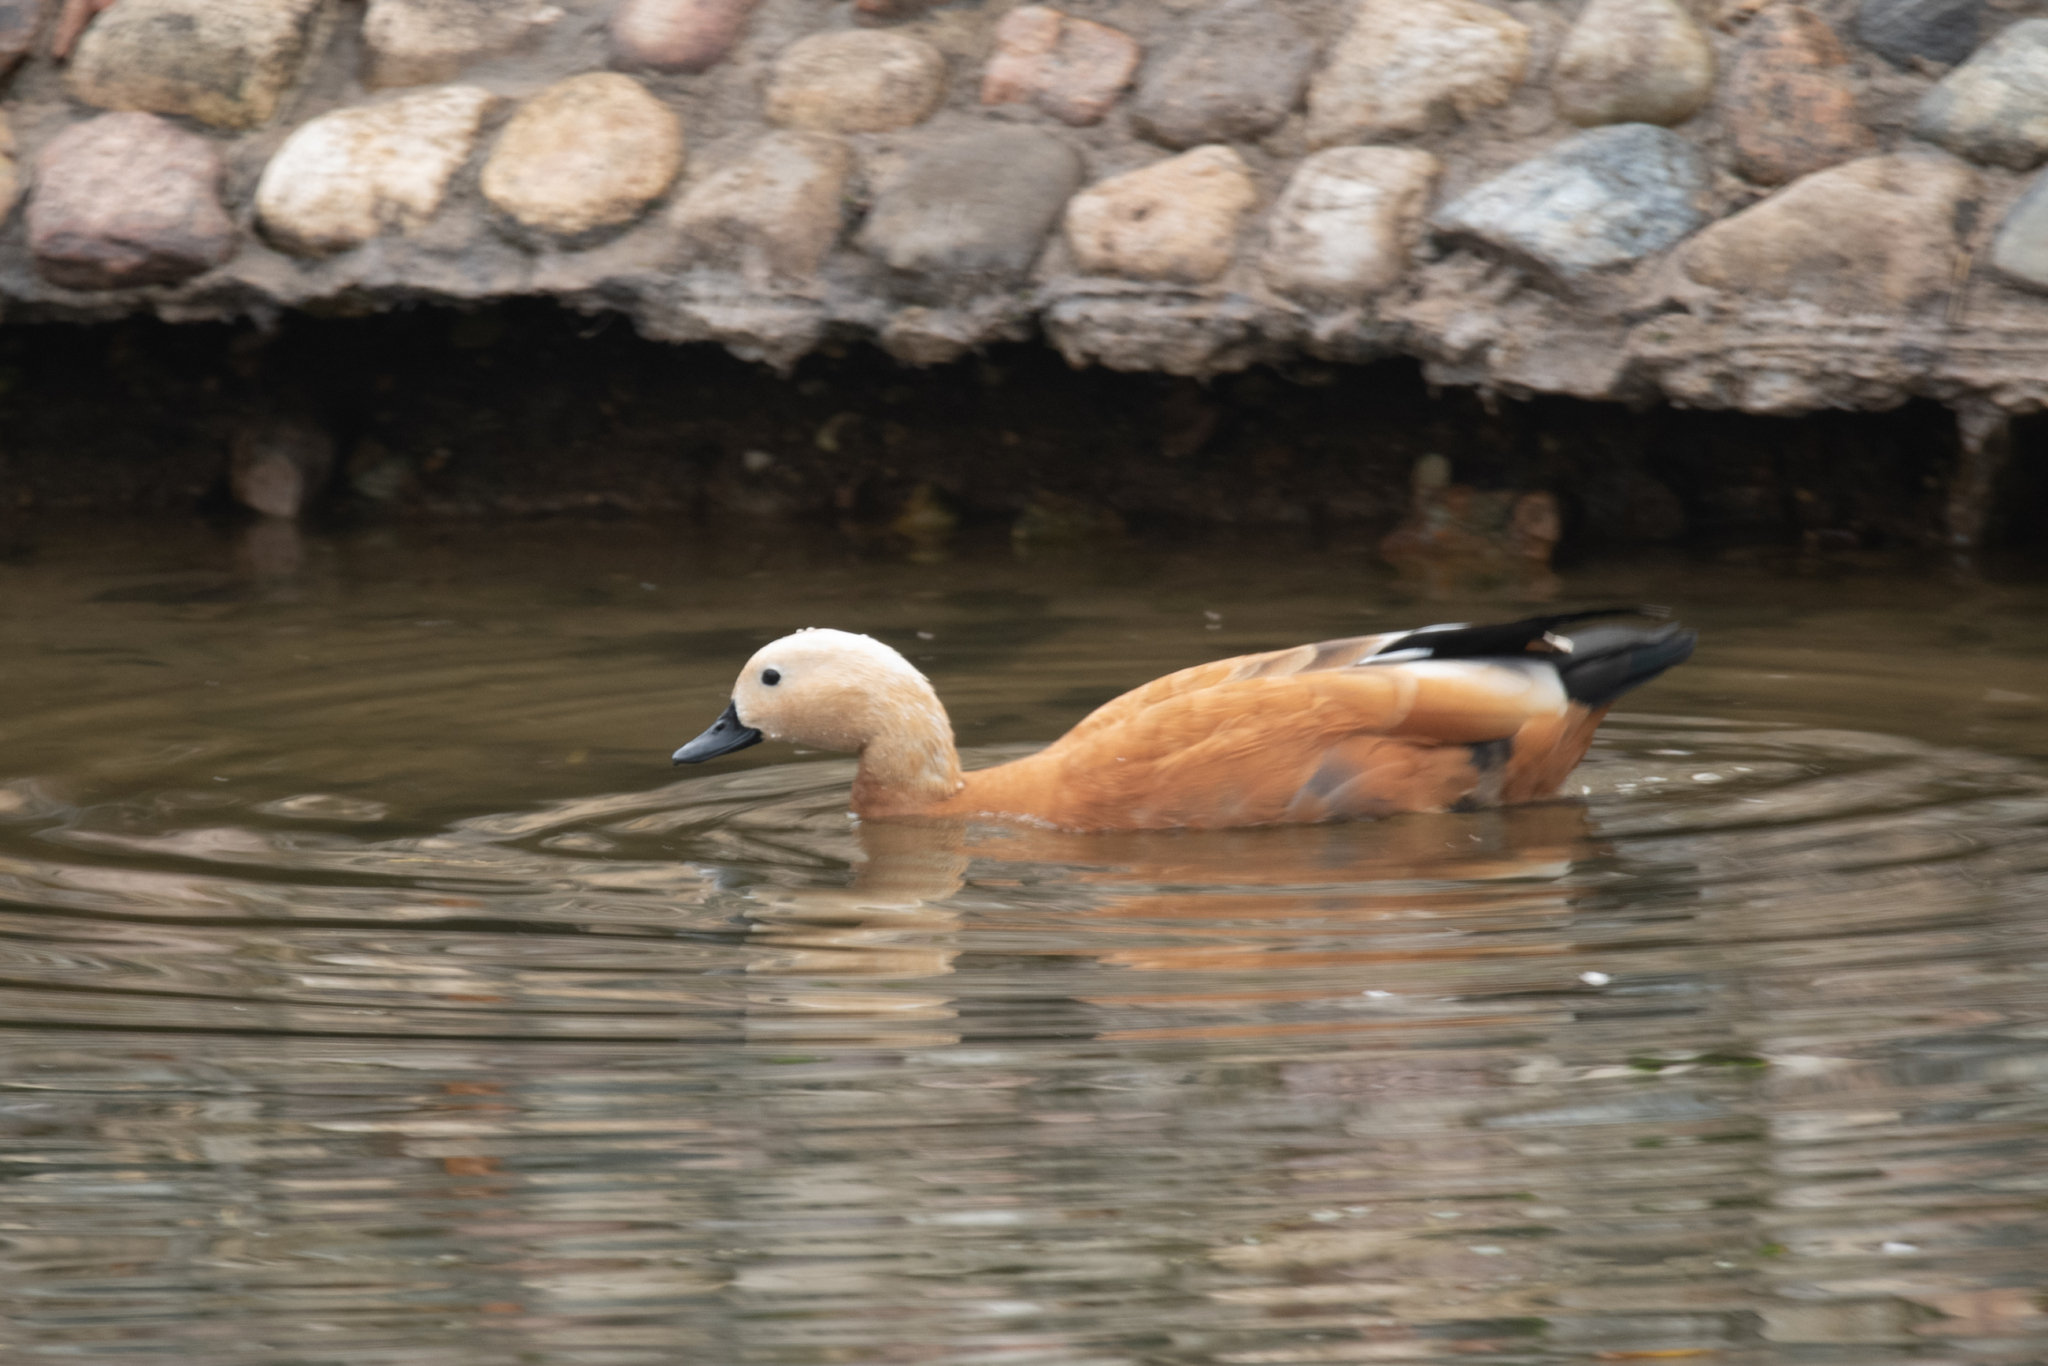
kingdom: Animalia
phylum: Chordata
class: Aves
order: Anseriformes
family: Anatidae
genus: Tadorna
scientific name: Tadorna ferruginea
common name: Ruddy shelduck
